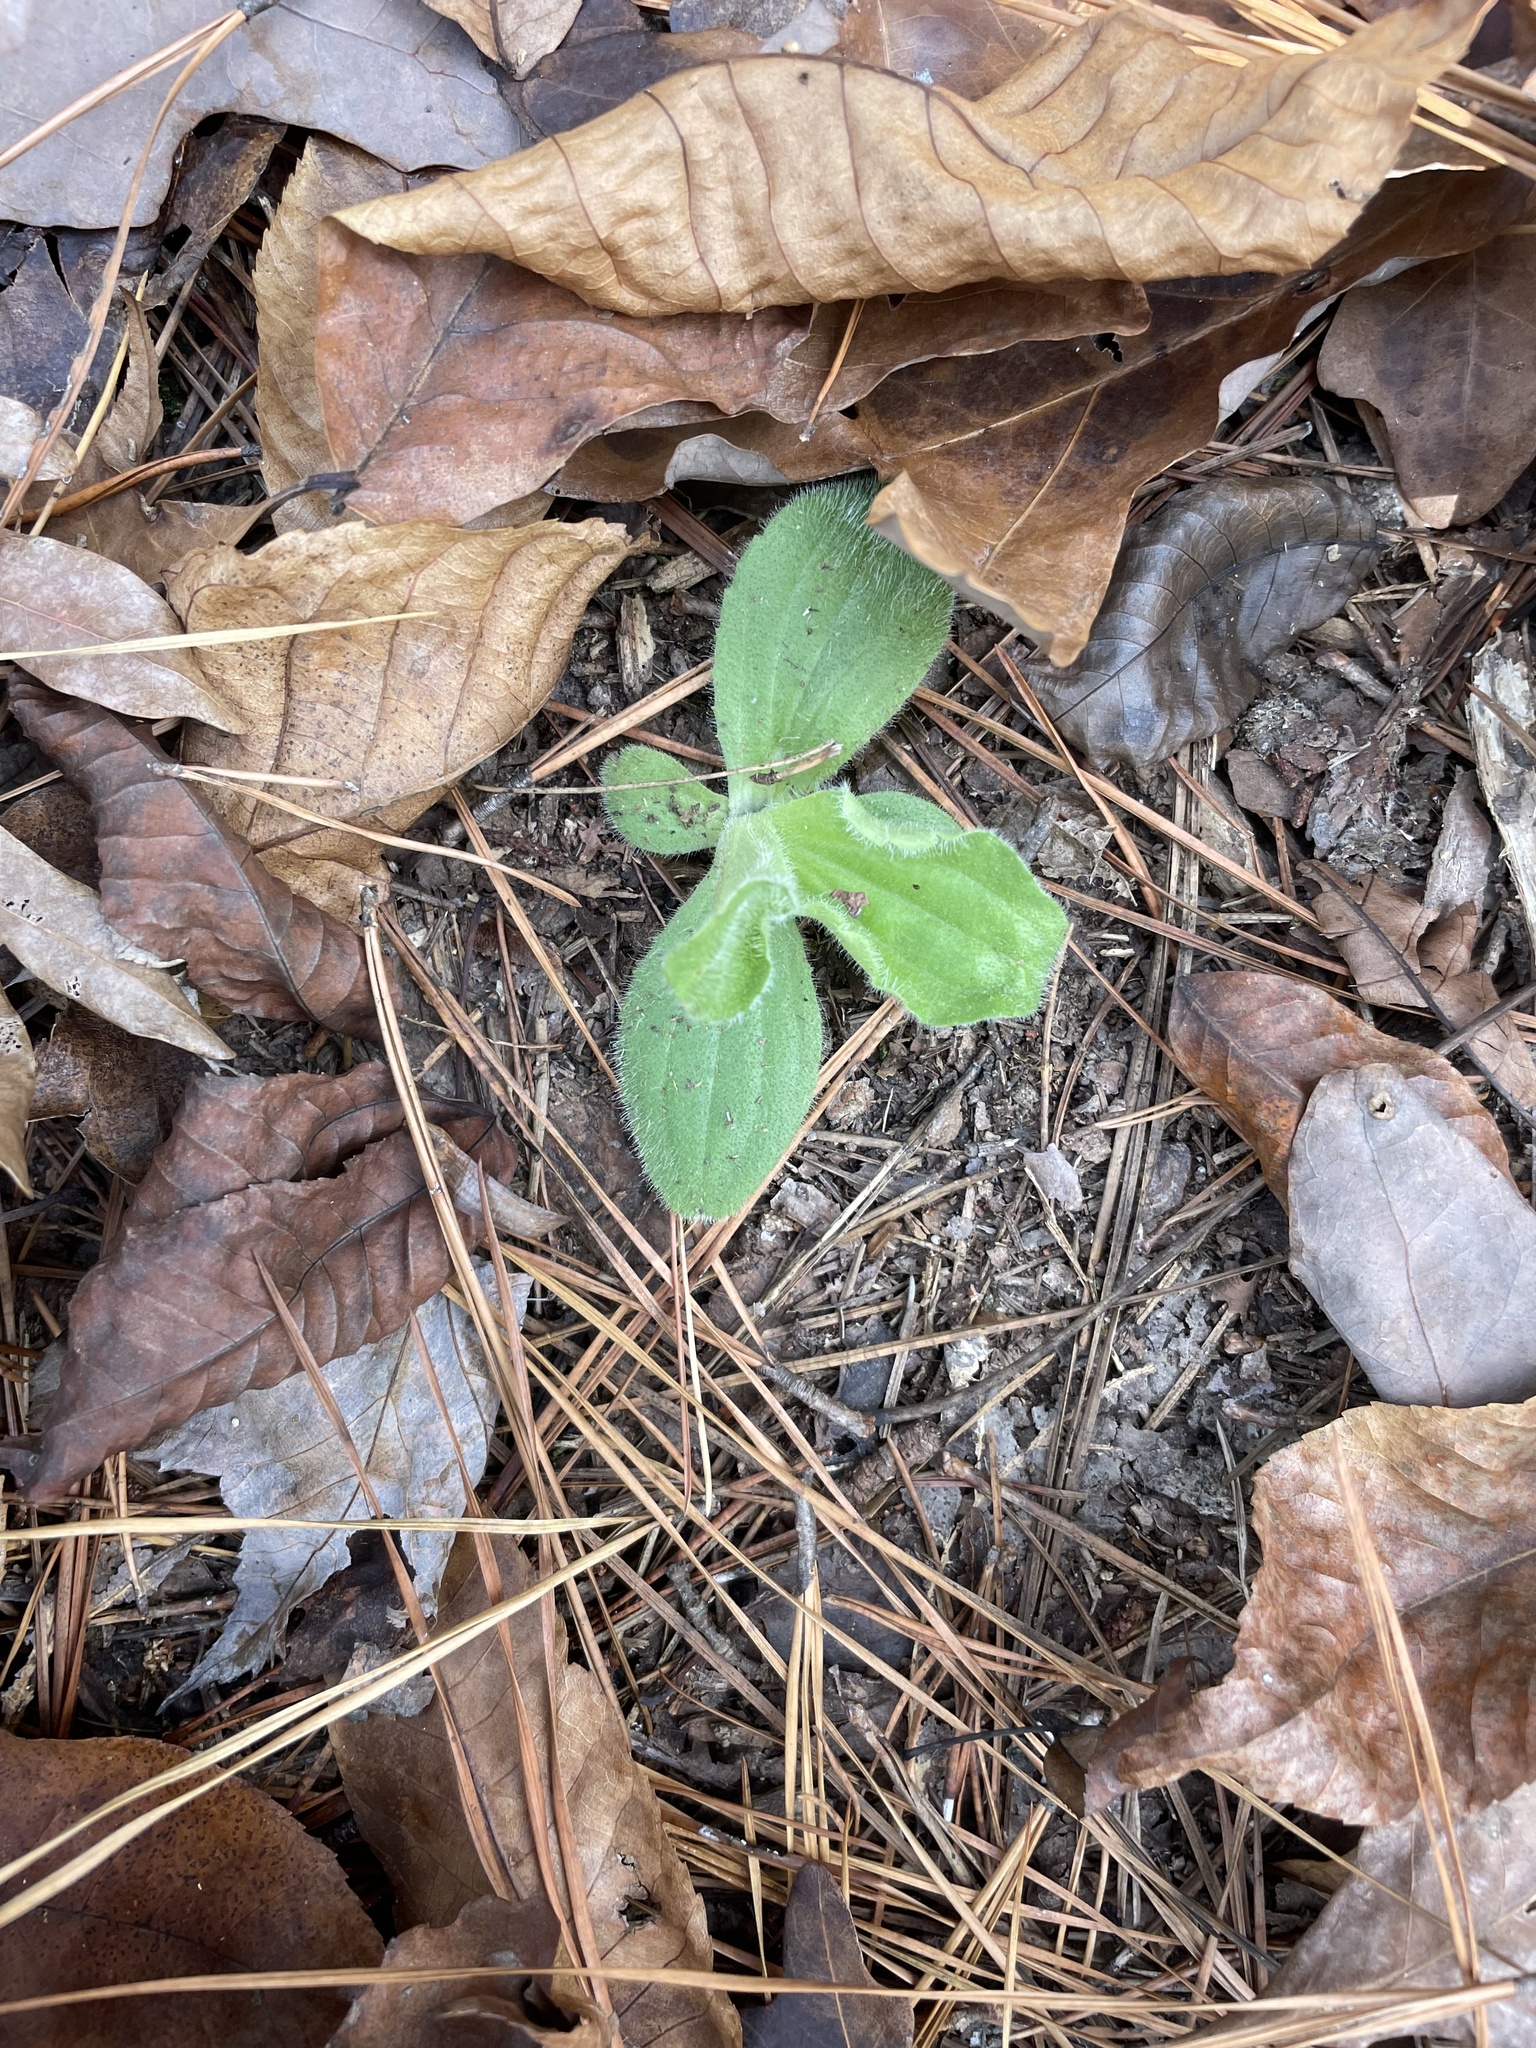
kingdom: Plantae
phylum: Tracheophyta
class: Magnoliopsida
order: Asterales
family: Asteraceae
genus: Arnica
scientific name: Arnica acaulis
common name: Common leopardbane
